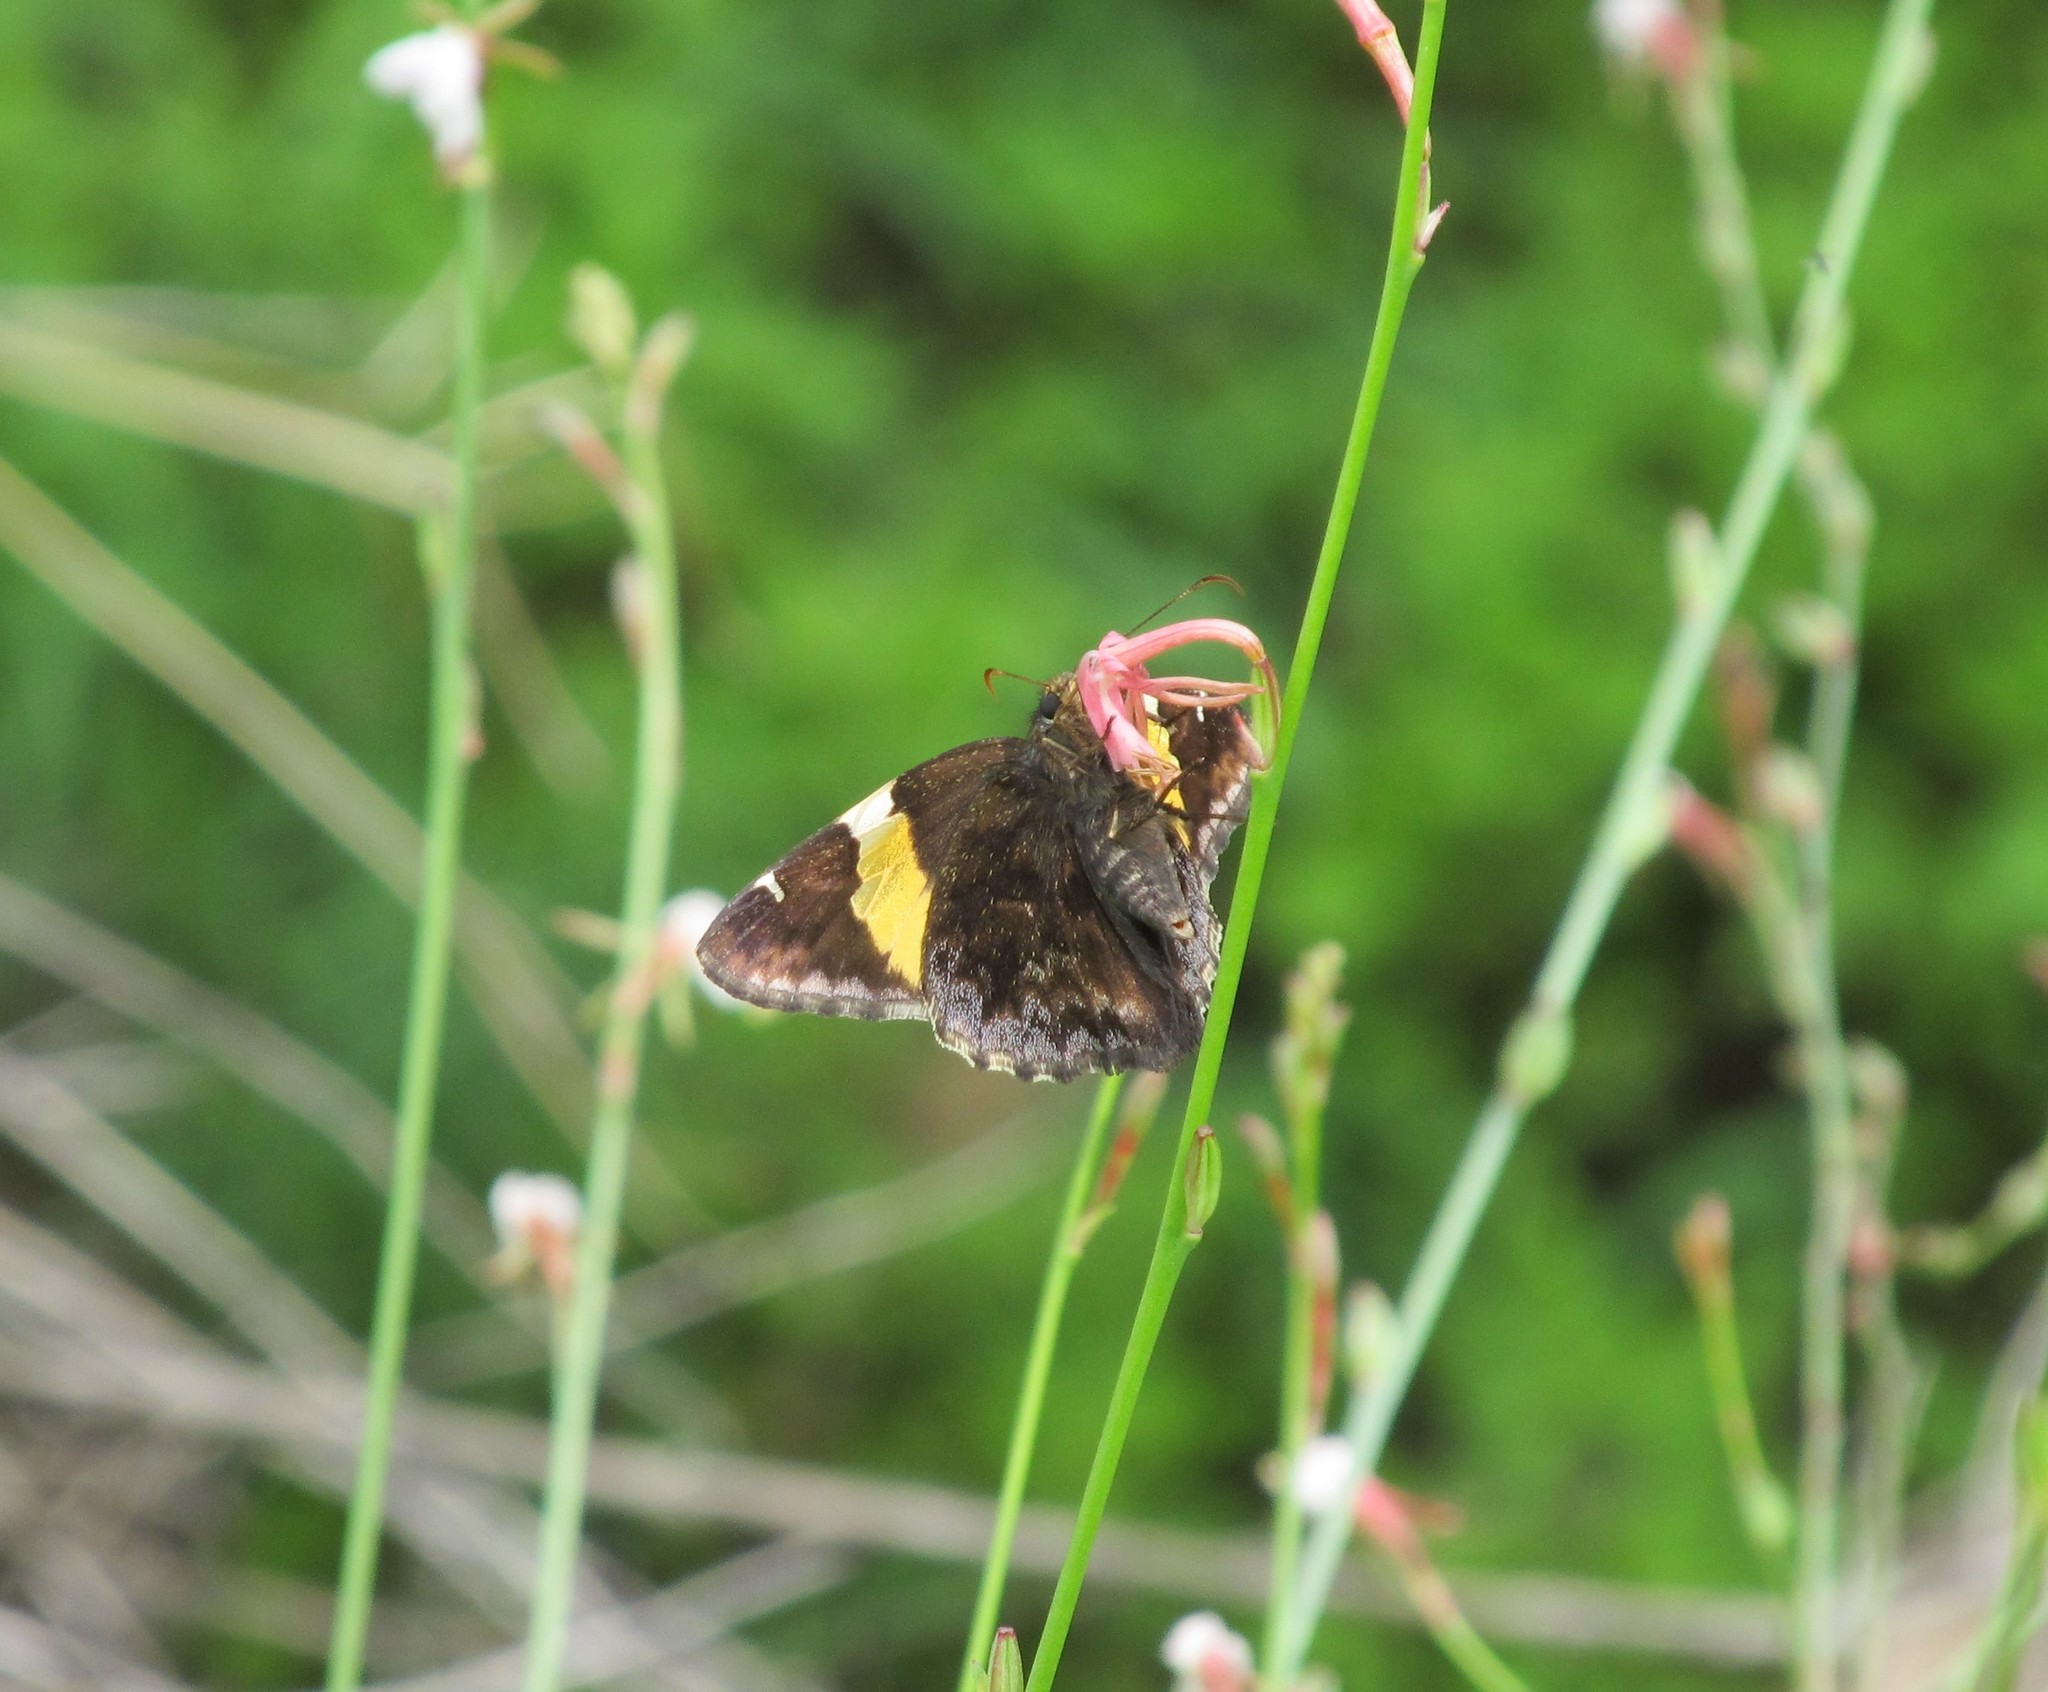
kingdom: Animalia
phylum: Arthropoda
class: Arachnida
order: Scorpiones
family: Bothriuridae
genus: Telegonus
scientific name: Telegonus cellus
